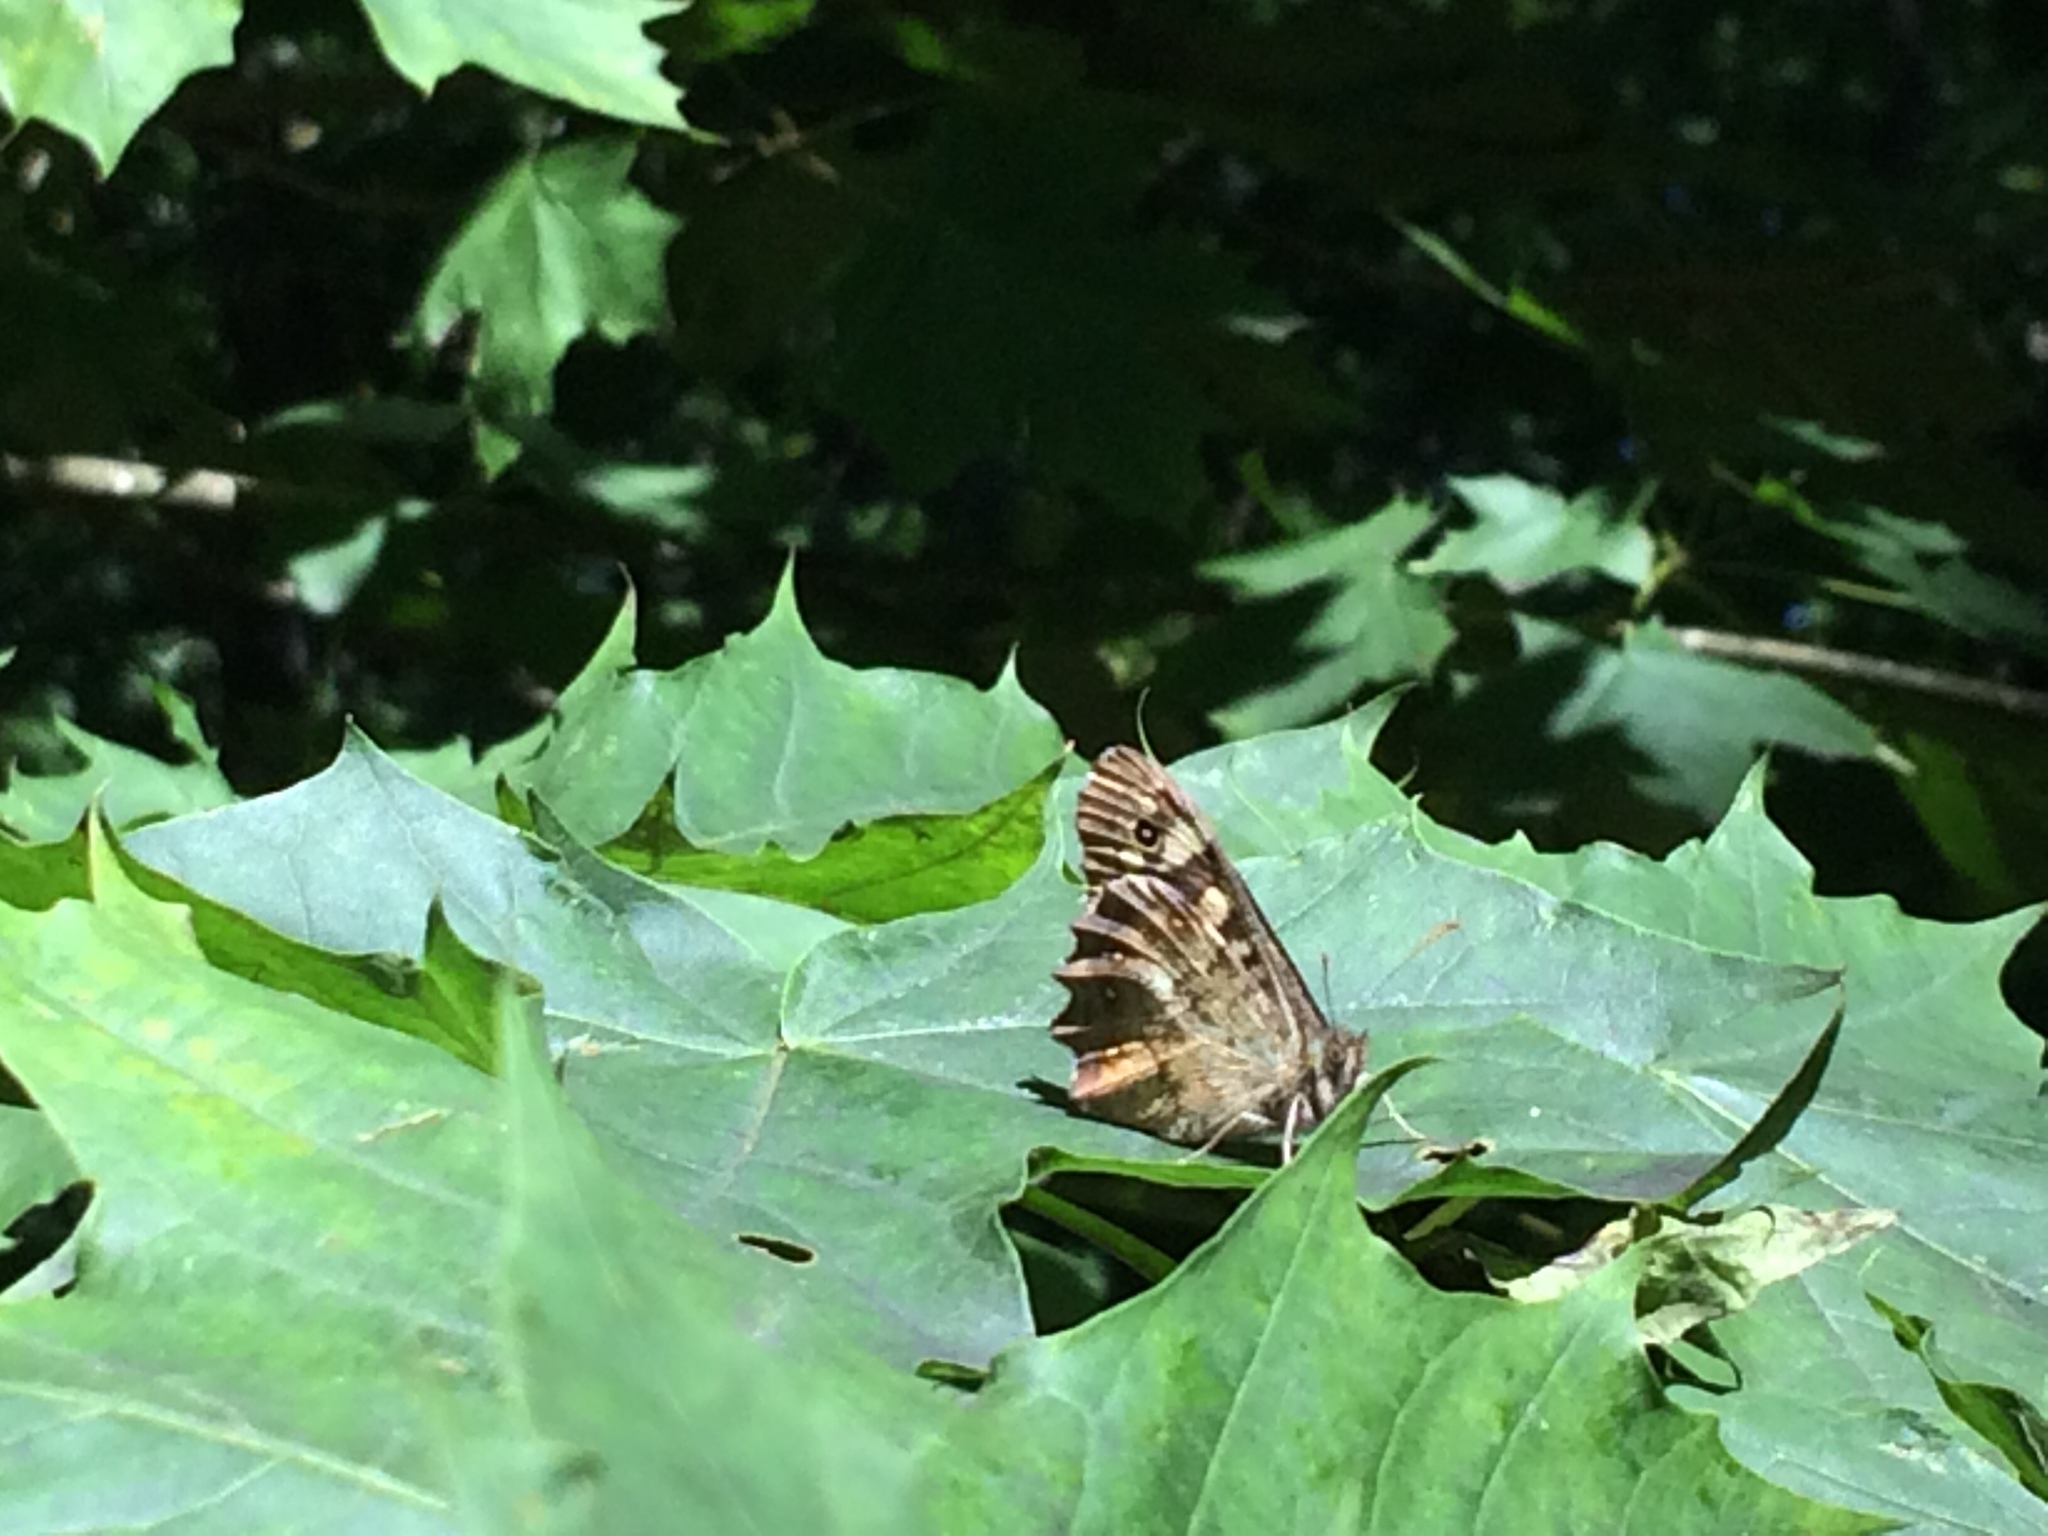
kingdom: Animalia
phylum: Arthropoda
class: Insecta
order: Lepidoptera
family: Nymphalidae
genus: Pararge
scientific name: Pararge aegeria
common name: Speckled wood
